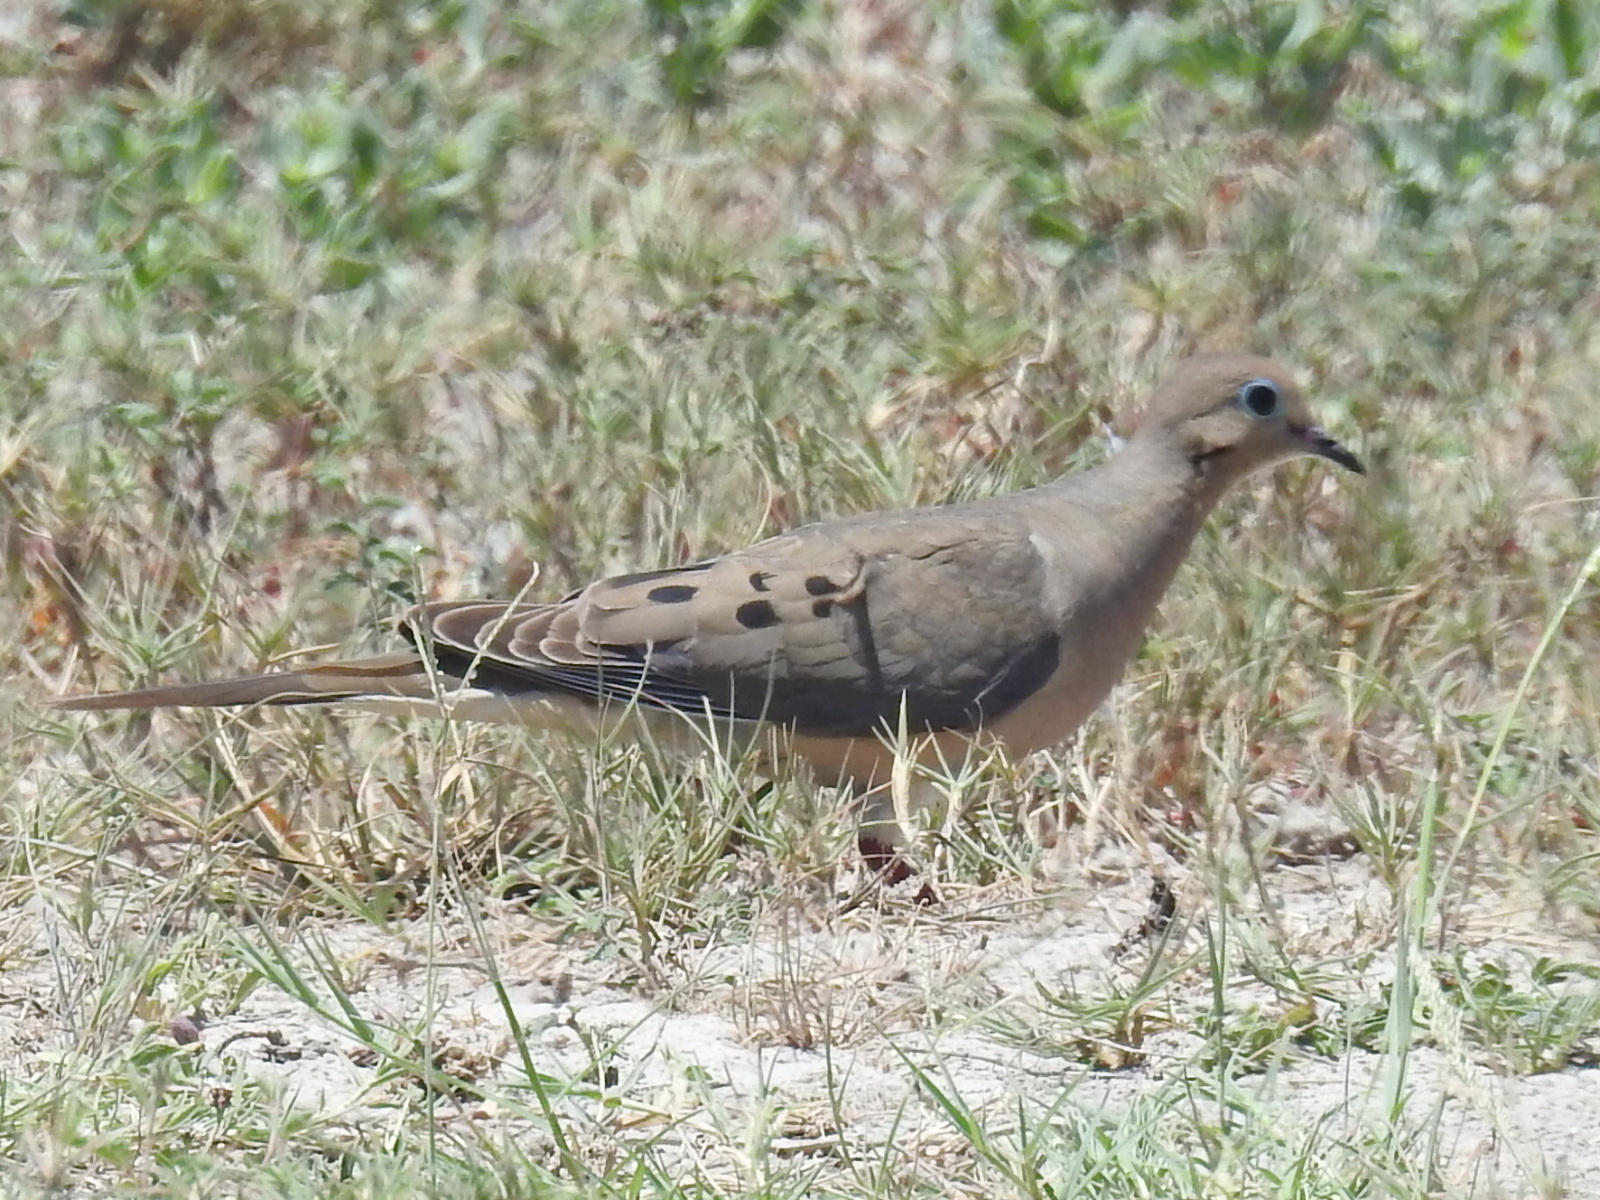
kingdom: Animalia
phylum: Chordata
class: Aves
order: Columbiformes
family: Columbidae
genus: Zenaida
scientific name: Zenaida macroura
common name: Mourning dove
